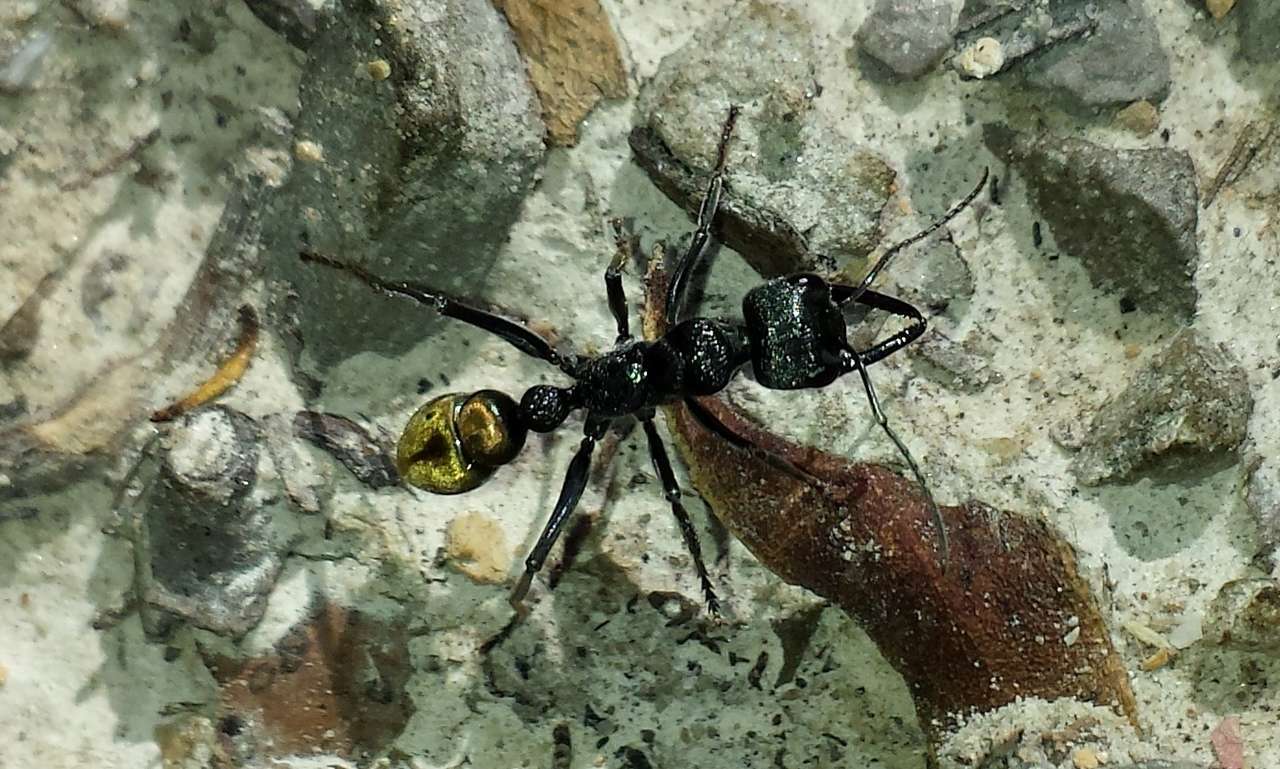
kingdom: Animalia
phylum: Arthropoda
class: Insecta
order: Hymenoptera
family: Formicidae
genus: Myrmecia
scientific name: Myrmecia piliventris
